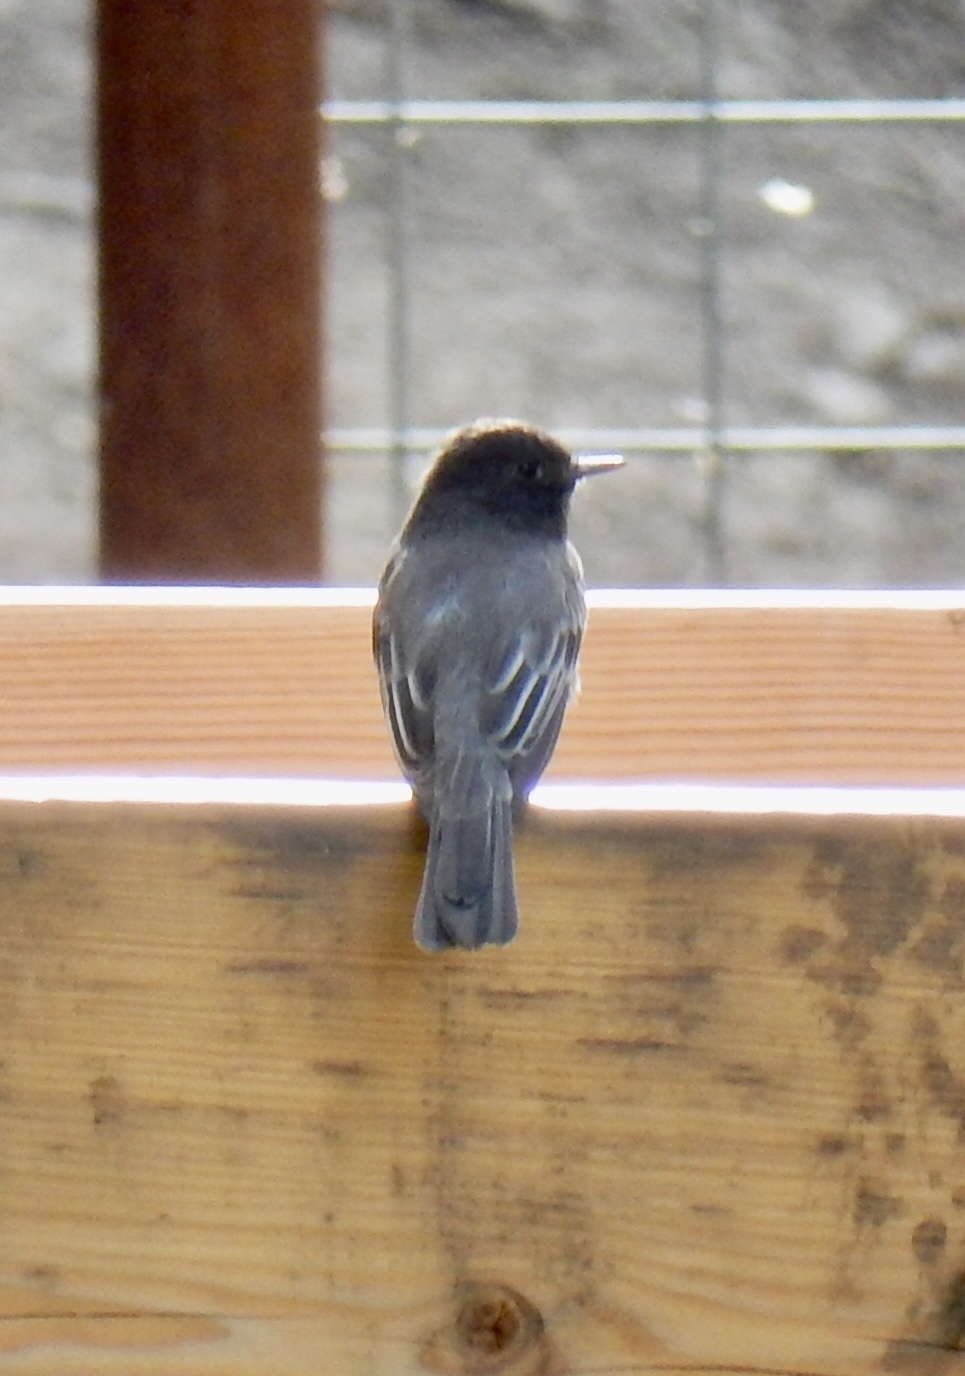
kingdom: Animalia
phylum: Chordata
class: Aves
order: Passeriformes
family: Tyrannidae
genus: Sayornis
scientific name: Sayornis nigricans
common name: Black phoebe
